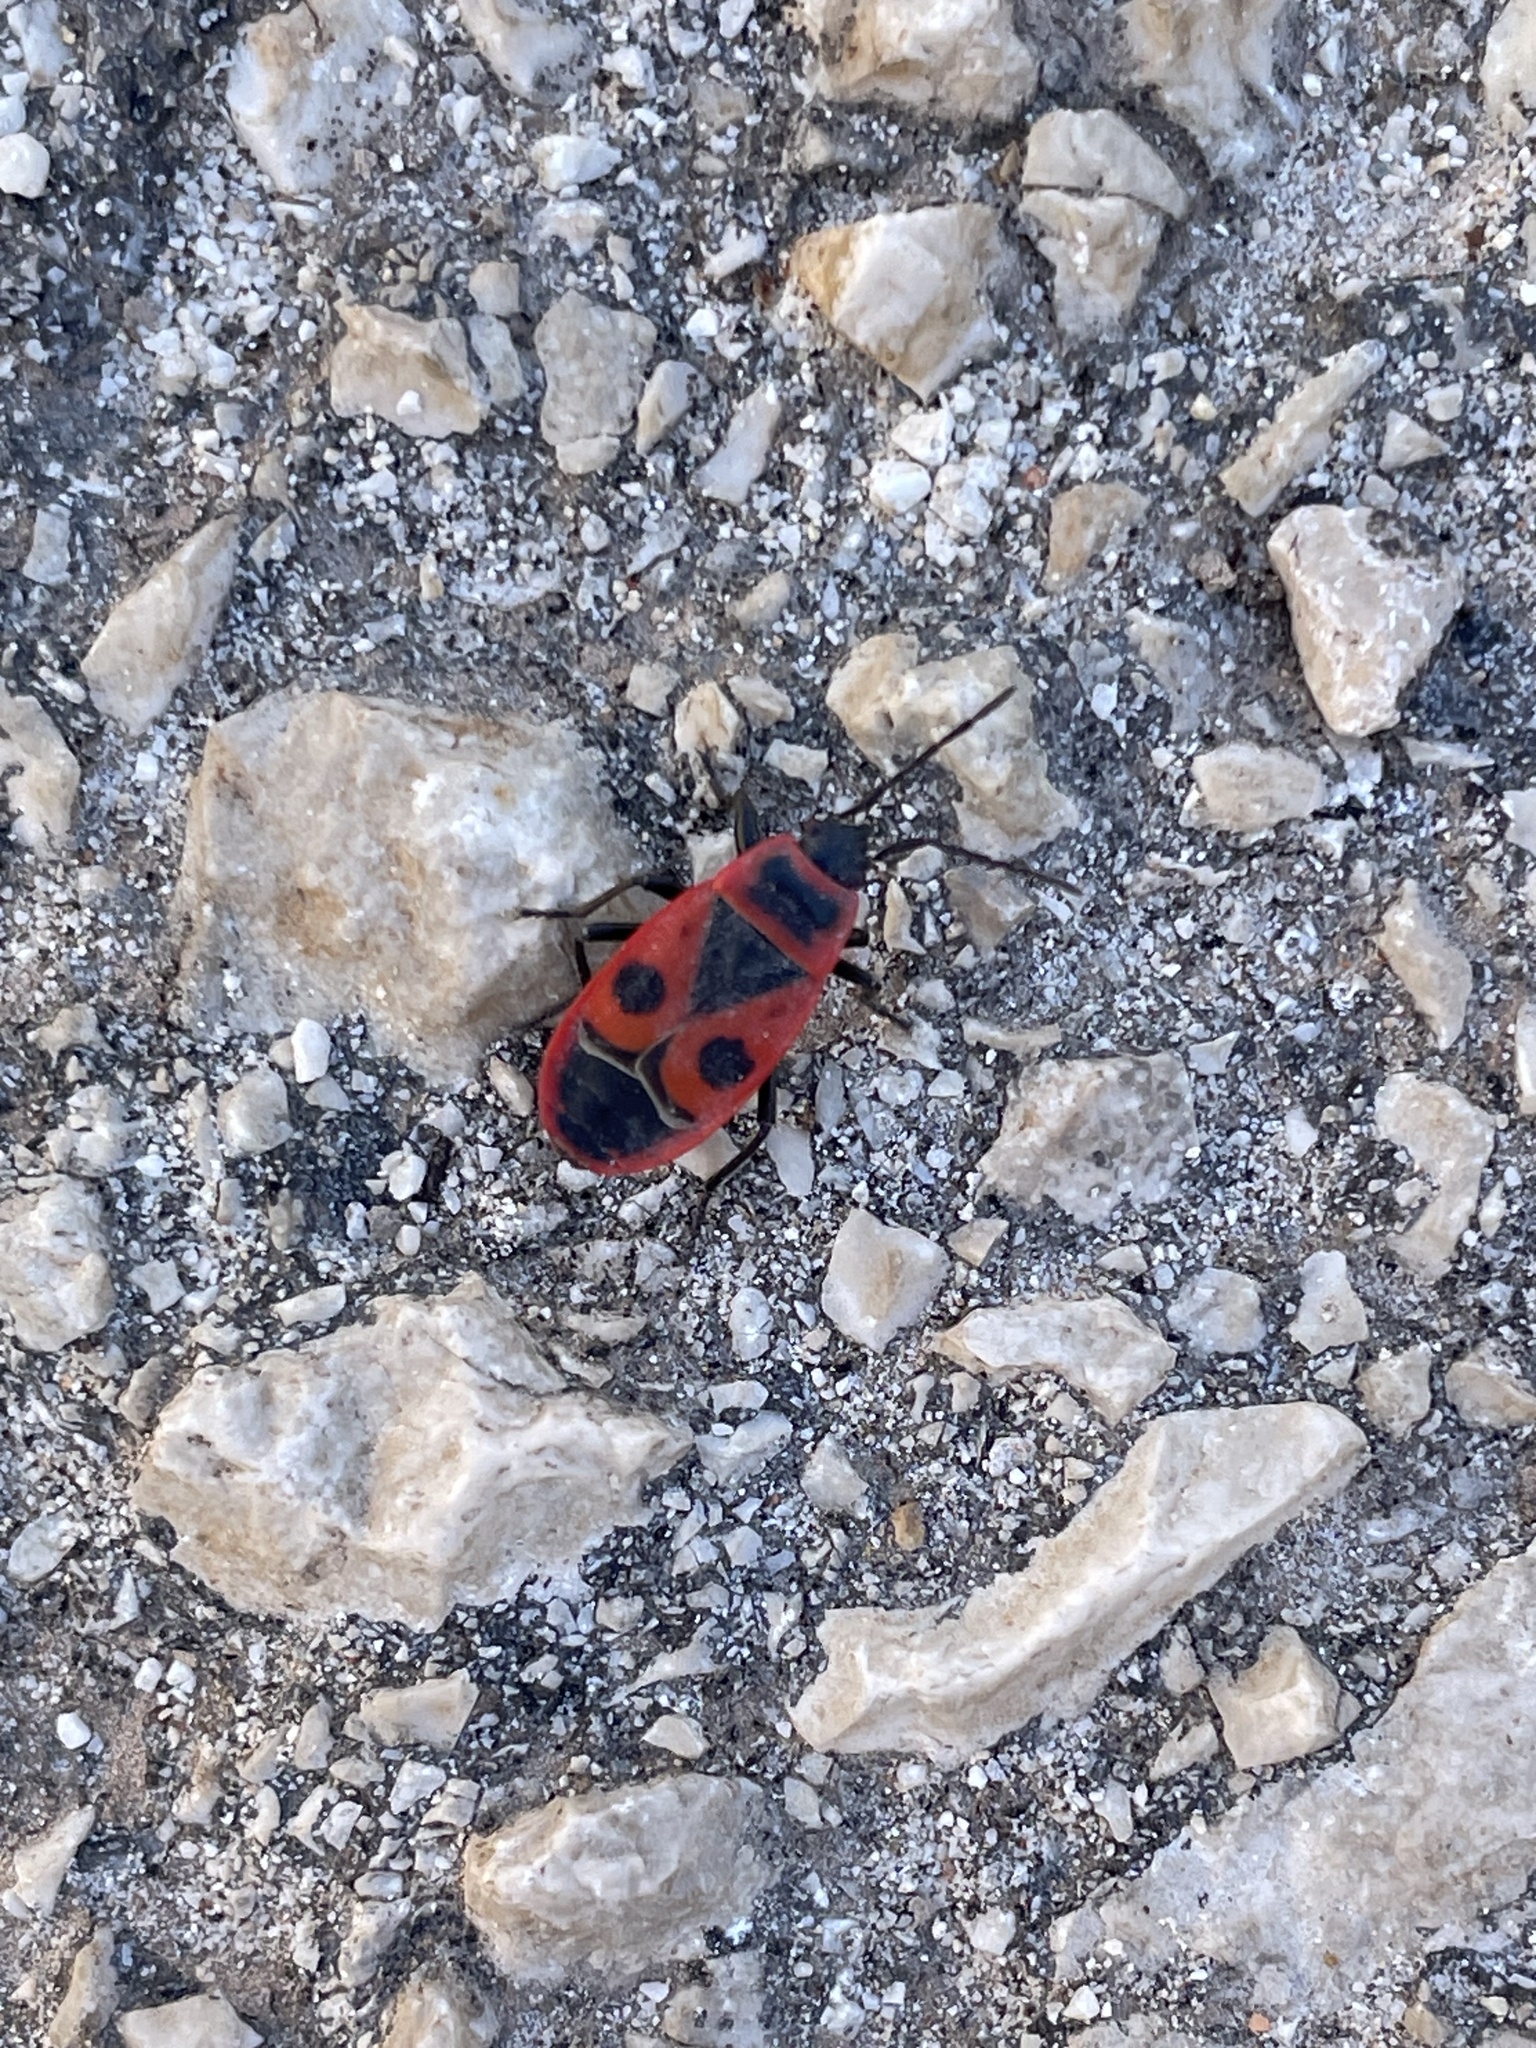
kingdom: Animalia
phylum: Arthropoda
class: Insecta
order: Hemiptera
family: Pyrrhocoridae
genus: Pyrrhocoris
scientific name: Pyrrhocoris apterus
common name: Firebug
